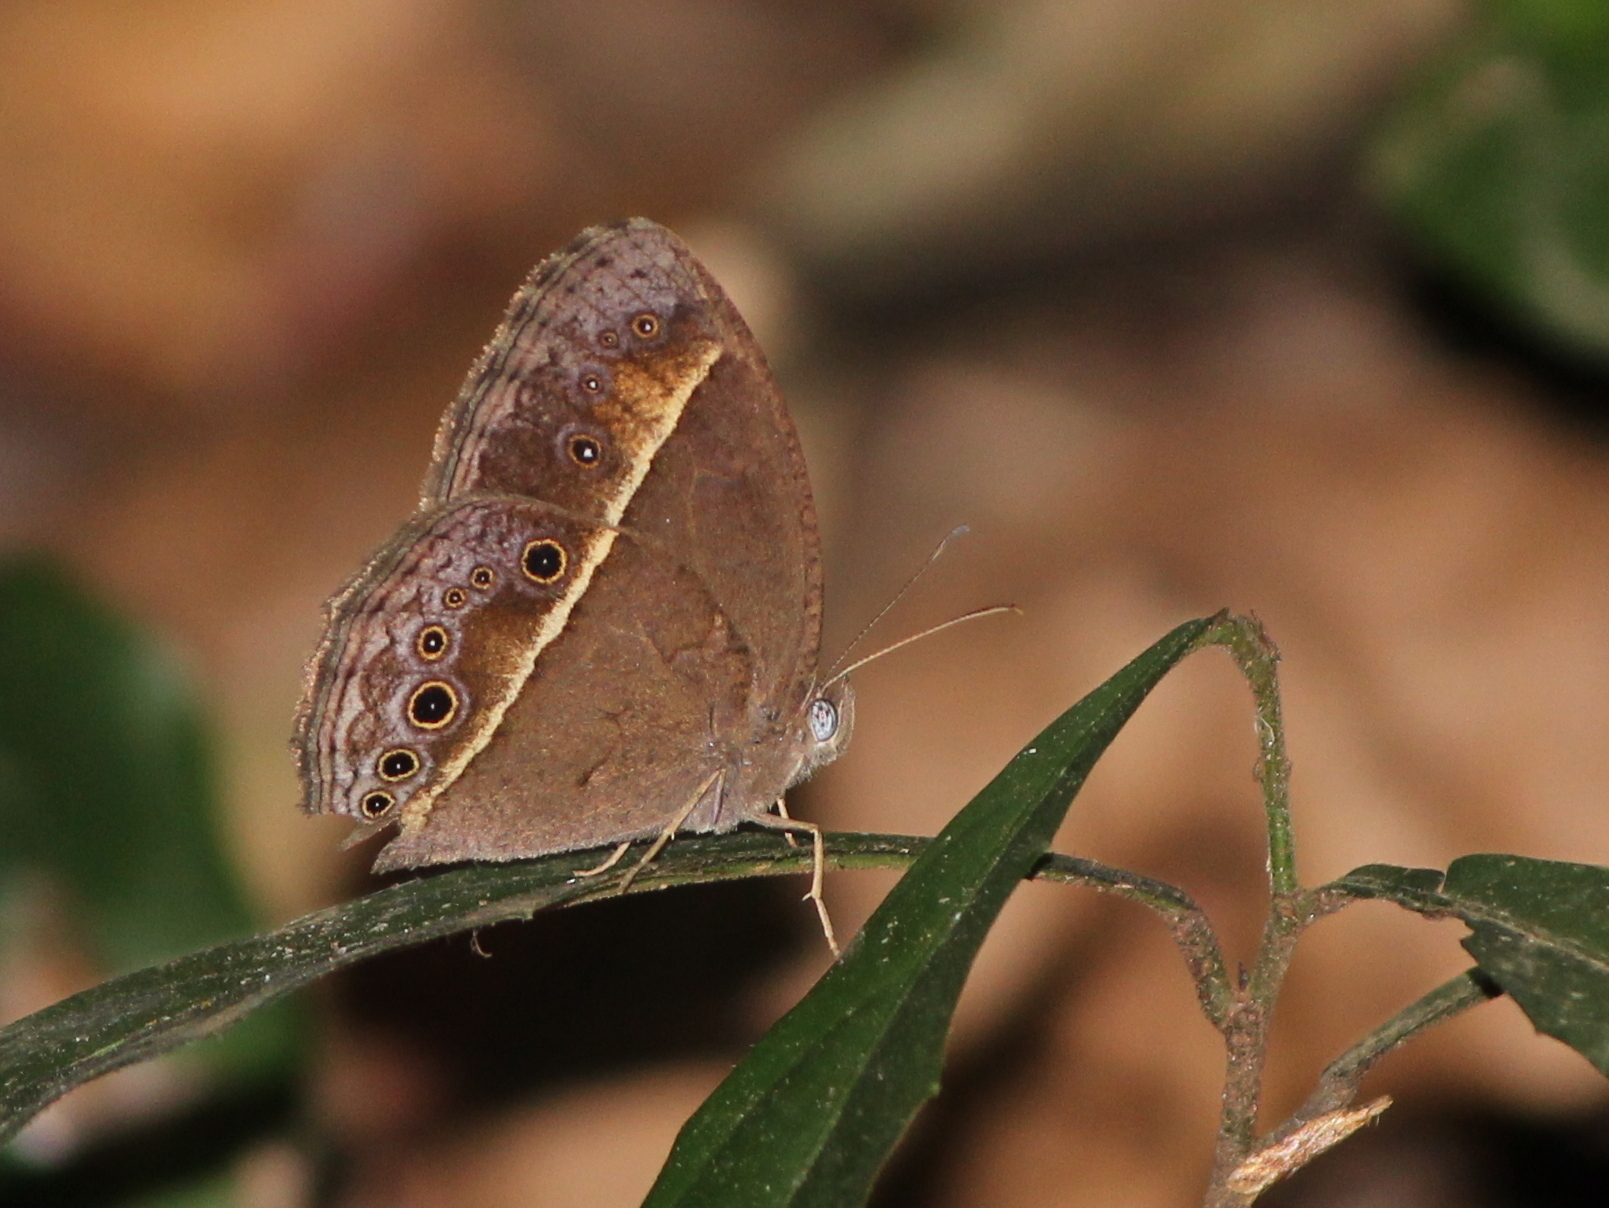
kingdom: Animalia
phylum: Arthropoda
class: Insecta
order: Lepidoptera
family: Nymphalidae
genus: Mycalesis
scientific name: Mycalesis perseus
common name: Dingy bushbrown
